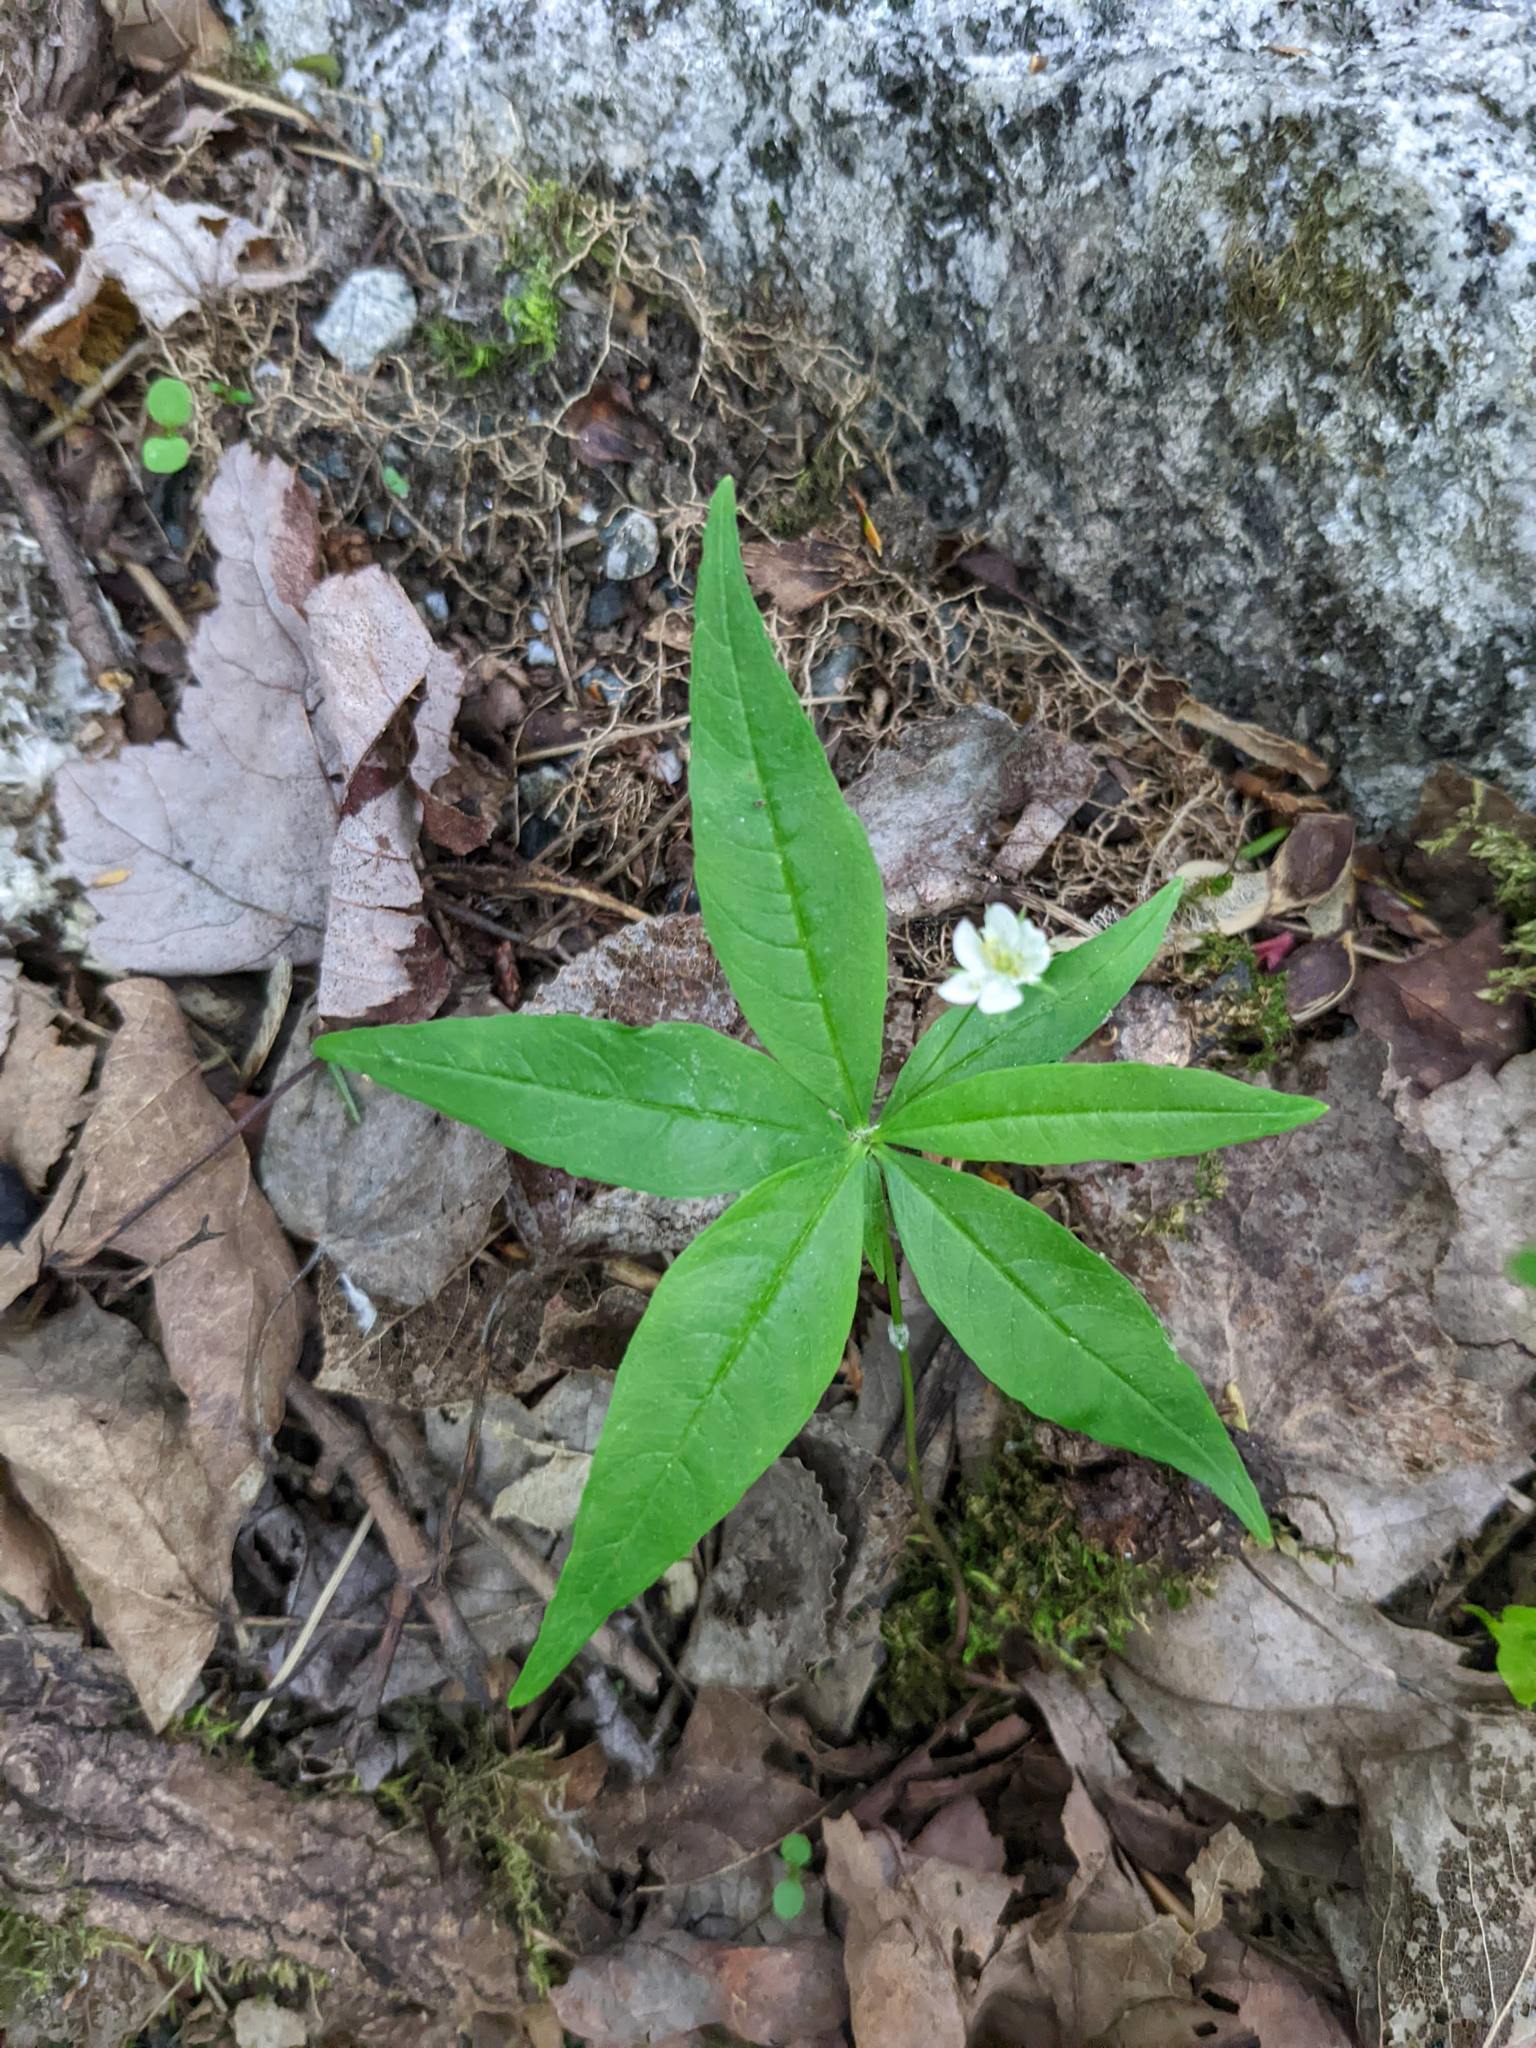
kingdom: Plantae
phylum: Tracheophyta
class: Magnoliopsida
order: Ericales
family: Primulaceae
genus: Lysimachia
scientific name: Lysimachia borealis
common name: American starflower
